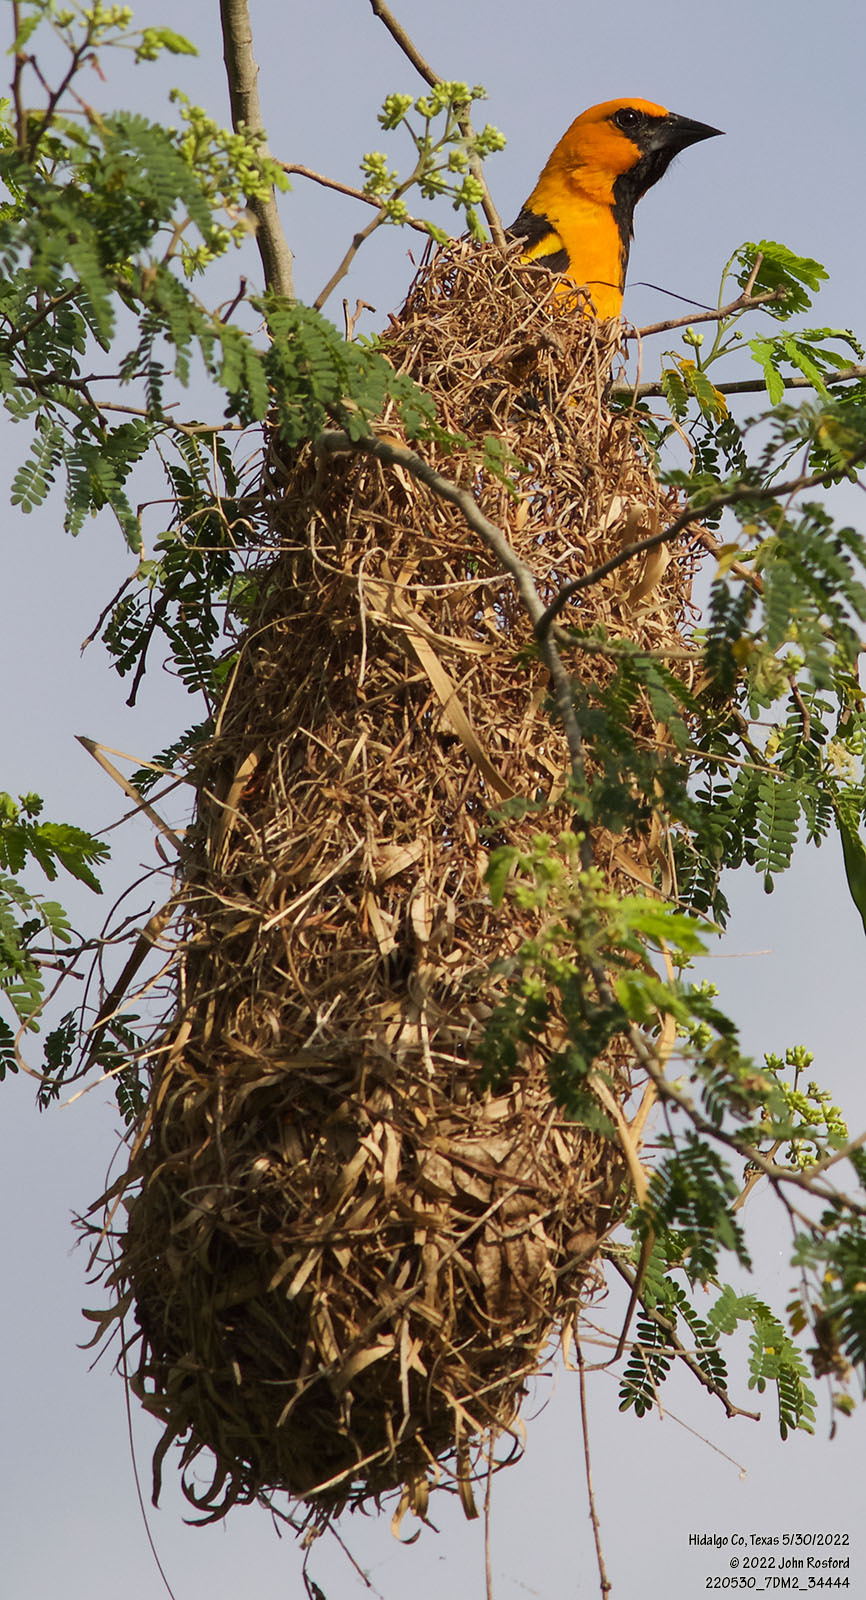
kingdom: Animalia
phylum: Chordata
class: Aves
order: Passeriformes
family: Icteridae
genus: Icterus
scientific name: Icterus gularis
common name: Altamira oriole
